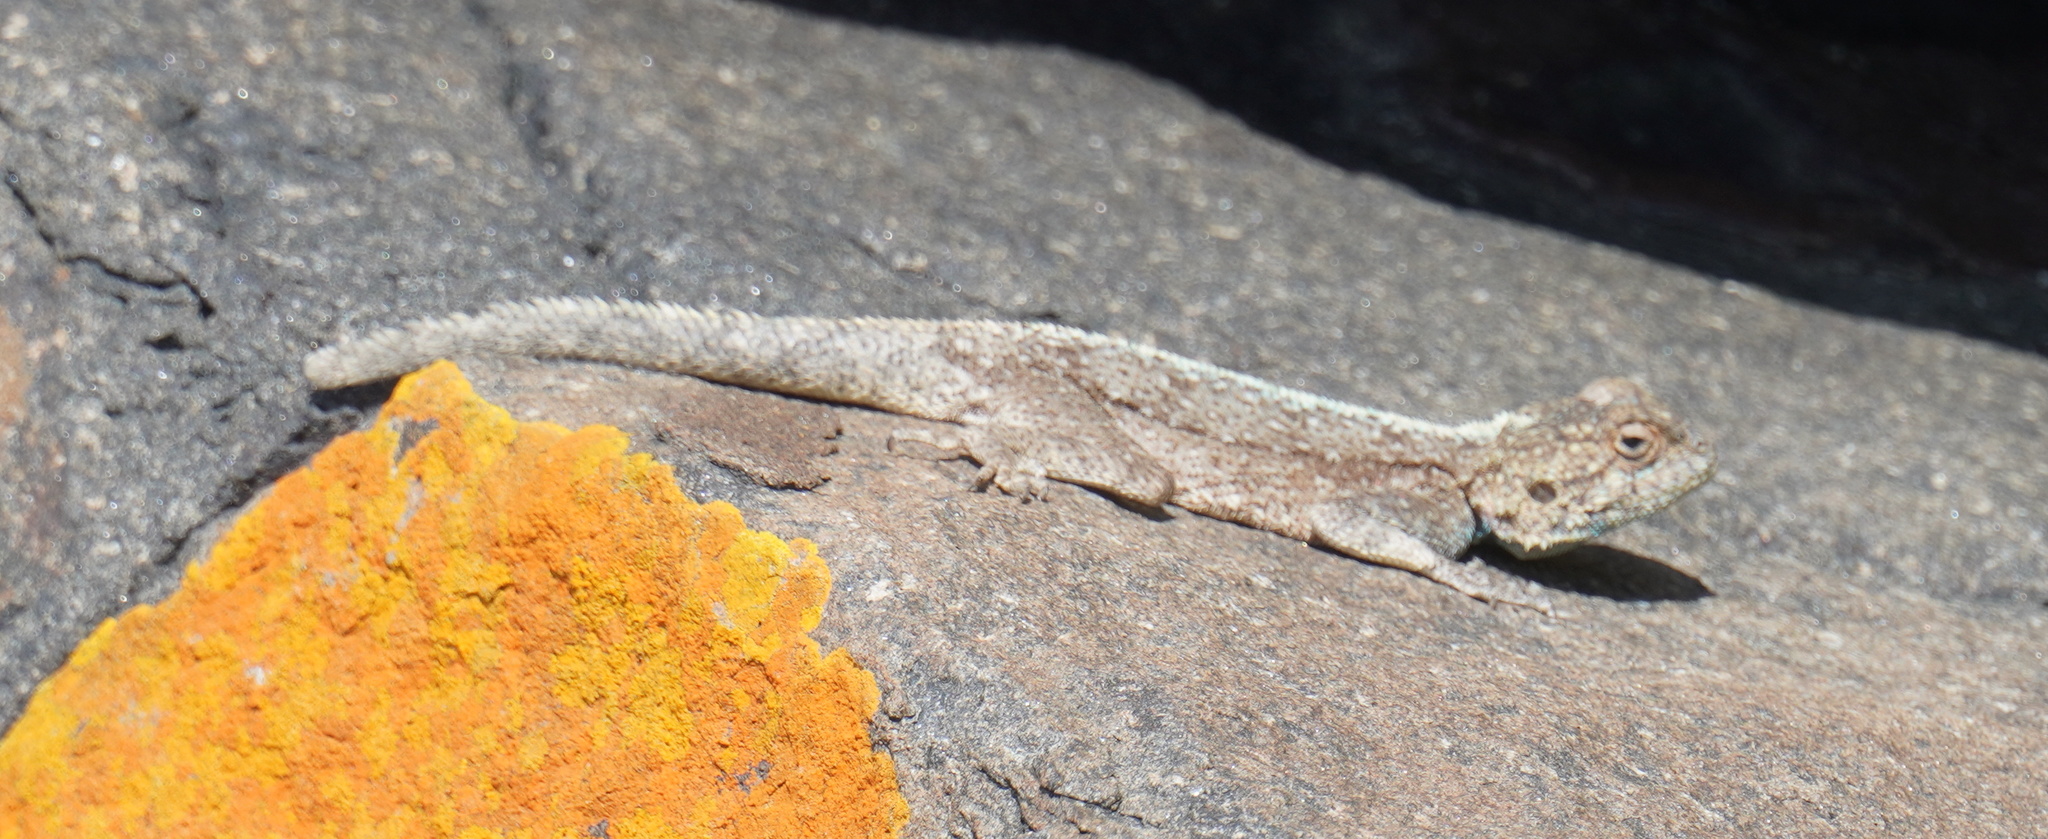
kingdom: Animalia
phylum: Chordata
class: Squamata
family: Agamidae
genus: Agama
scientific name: Agama atra
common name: Southern african rock agama
